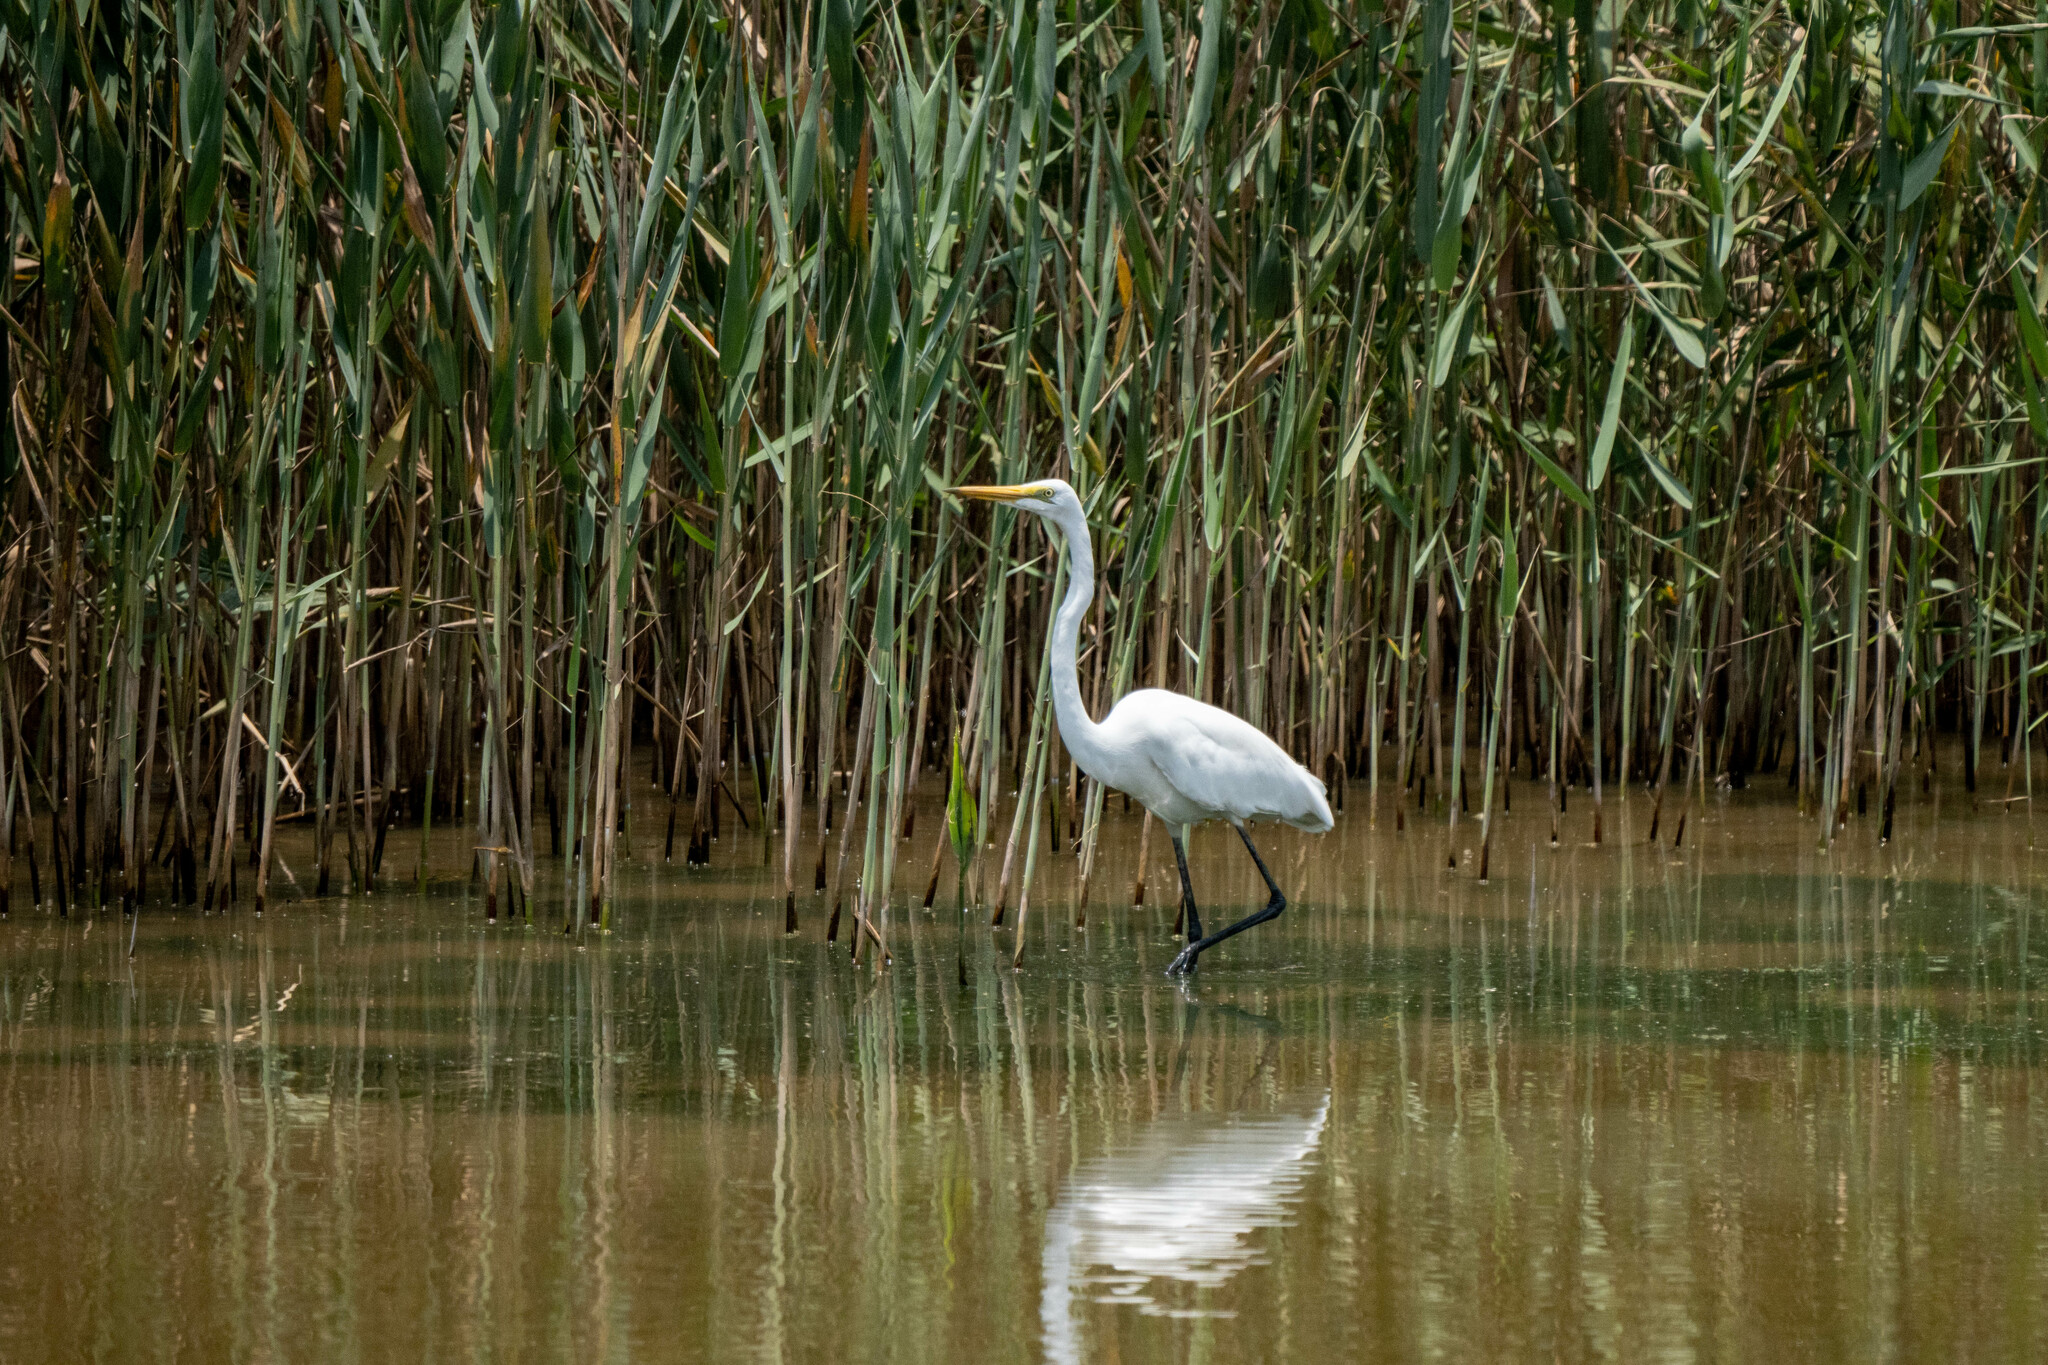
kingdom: Animalia
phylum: Chordata
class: Aves
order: Pelecaniformes
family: Ardeidae
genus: Ardea
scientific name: Ardea alba
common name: Great egret
